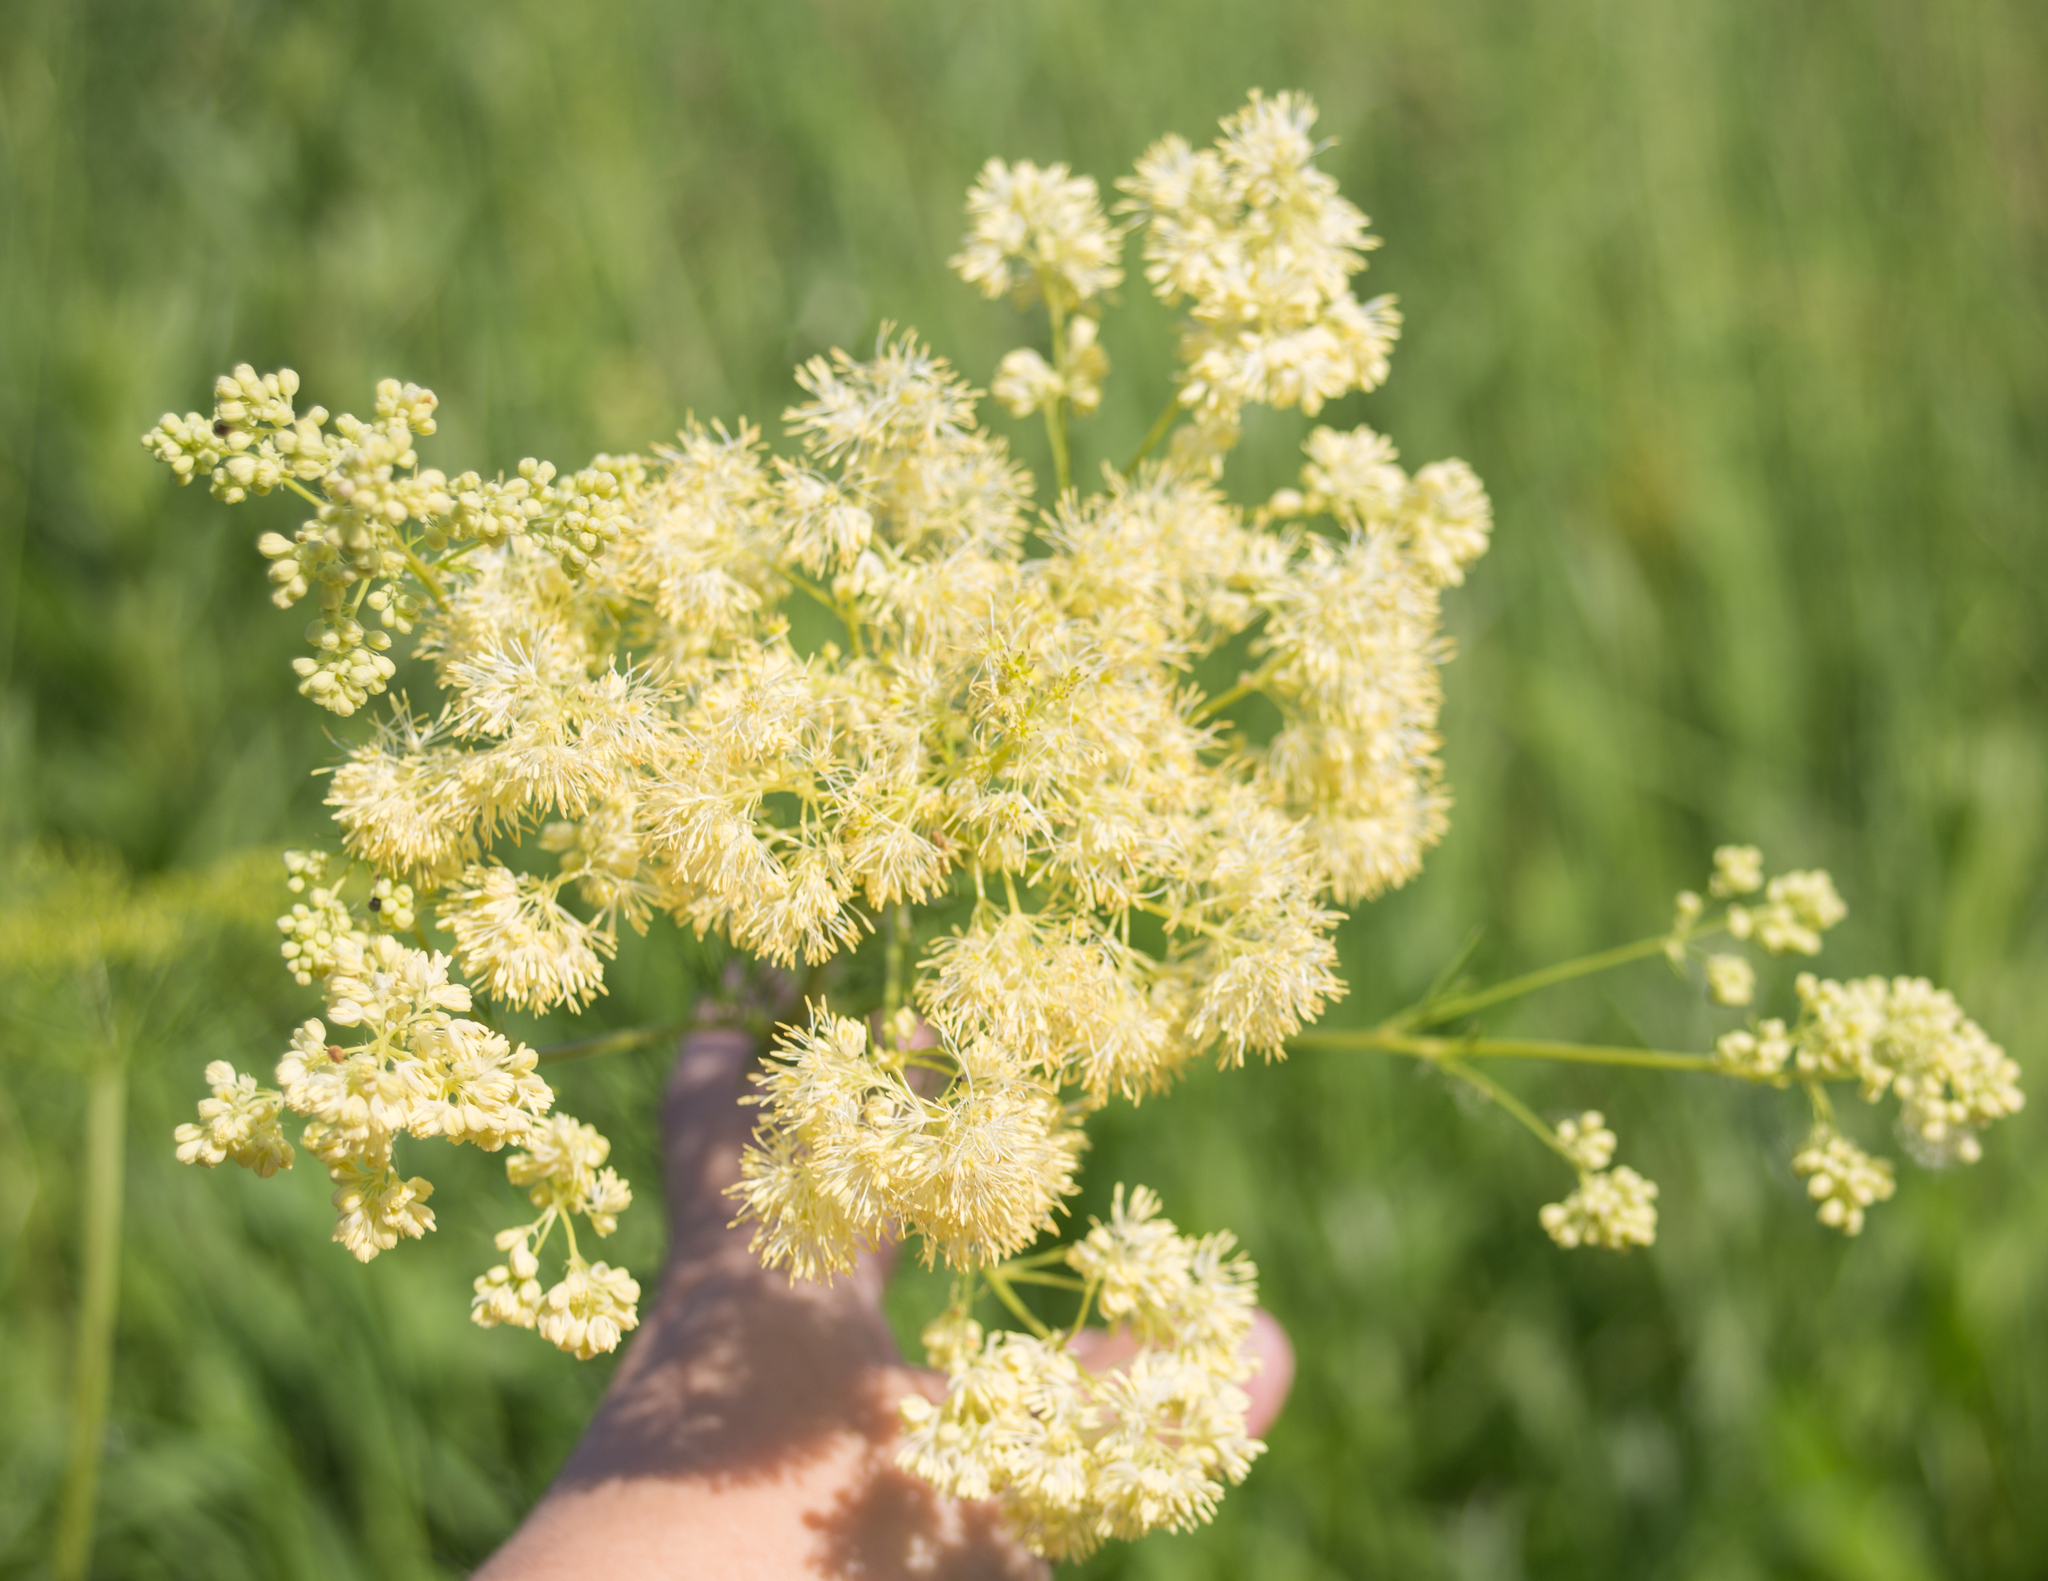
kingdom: Plantae
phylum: Tracheophyta
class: Magnoliopsida
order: Ranunculales
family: Ranunculaceae
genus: Thalictrum
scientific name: Thalictrum lucidum
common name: Shining meadow-rue
